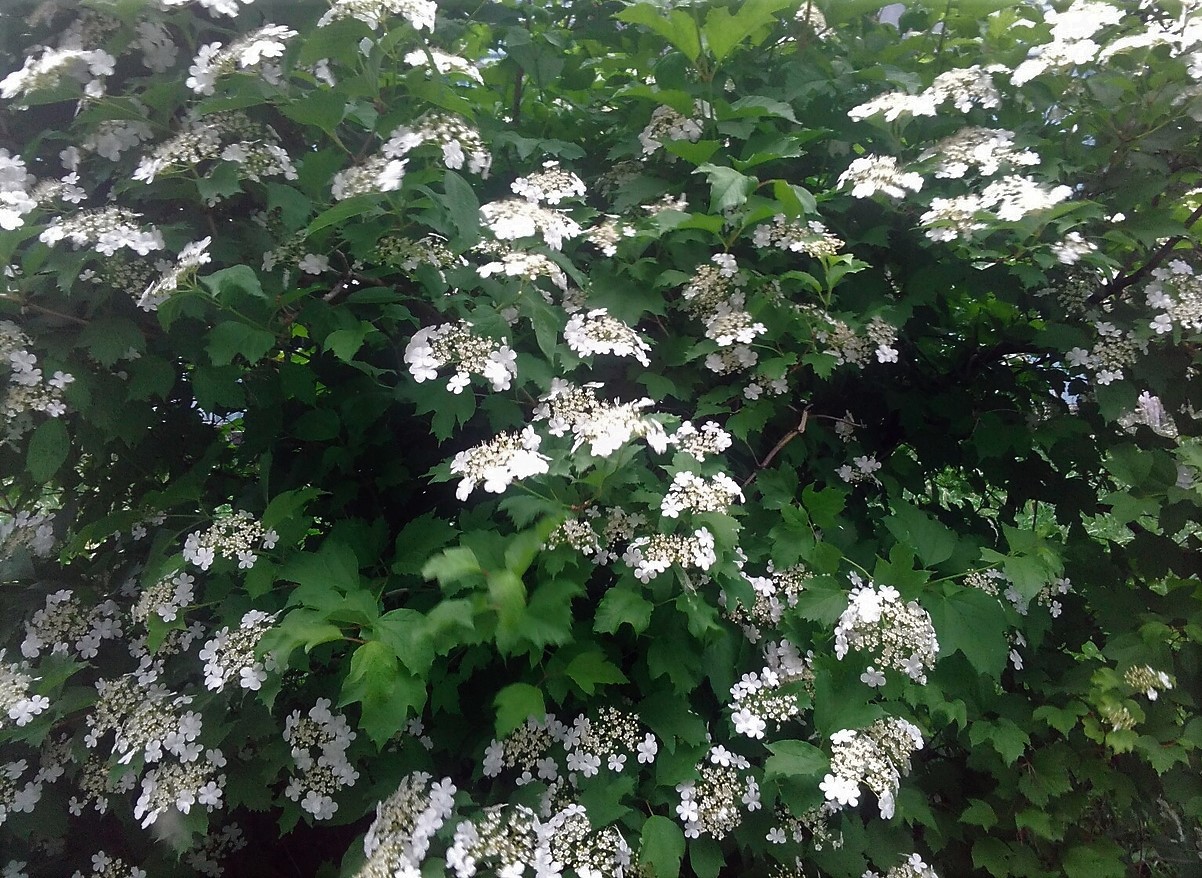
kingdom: Plantae
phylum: Tracheophyta
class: Magnoliopsida
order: Dipsacales
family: Viburnaceae
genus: Viburnum
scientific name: Viburnum opulus
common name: Guelder-rose
